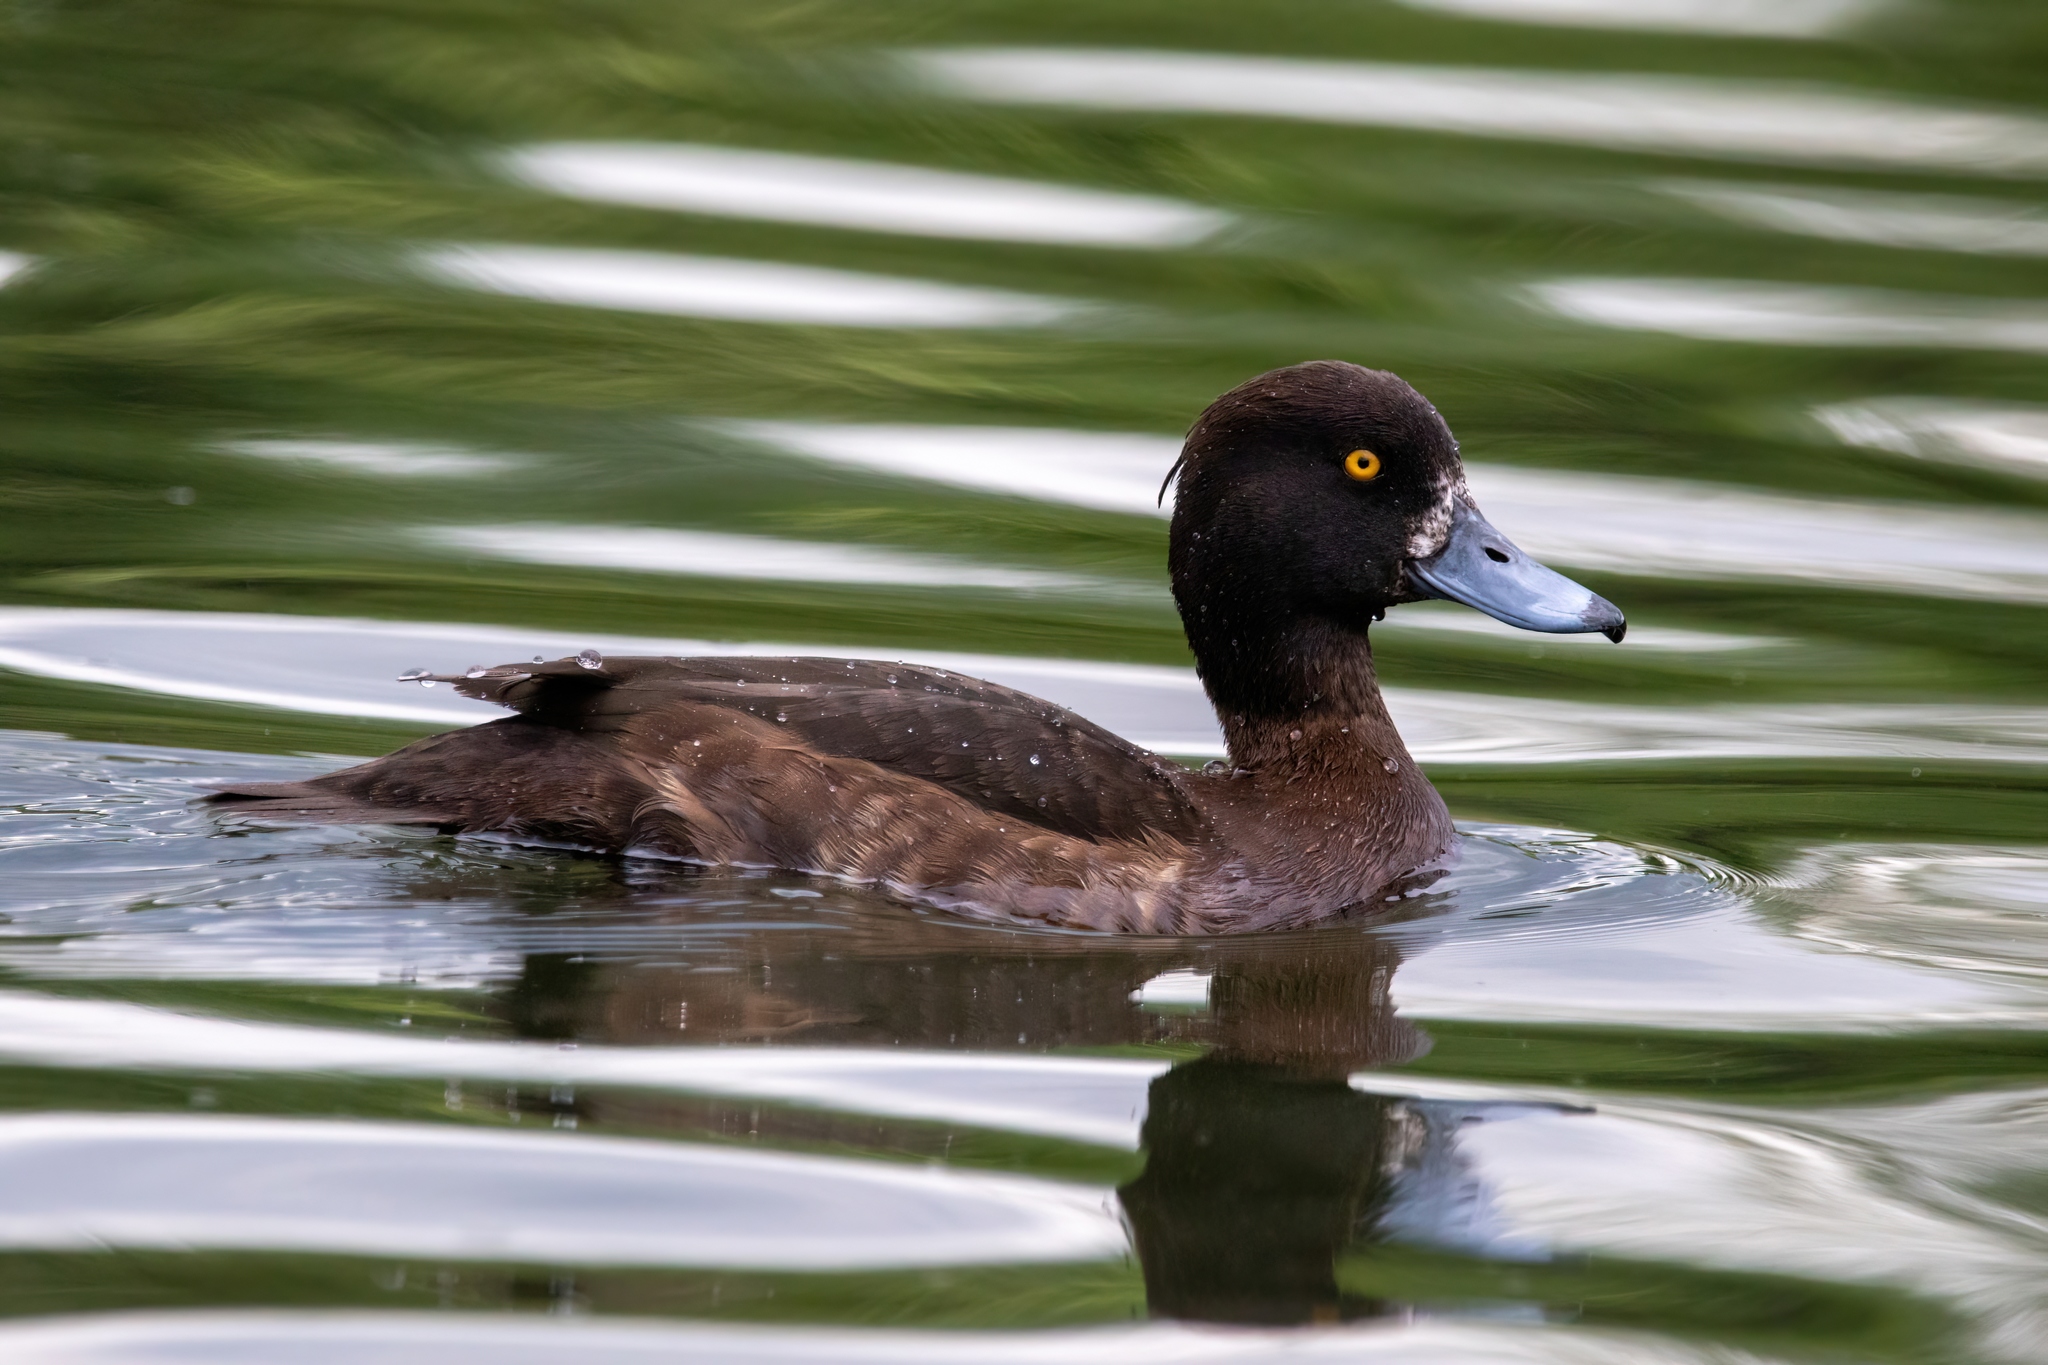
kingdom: Animalia
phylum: Chordata
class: Aves
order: Anseriformes
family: Anatidae
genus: Aythya
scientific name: Aythya fuligula
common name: Tufted duck
